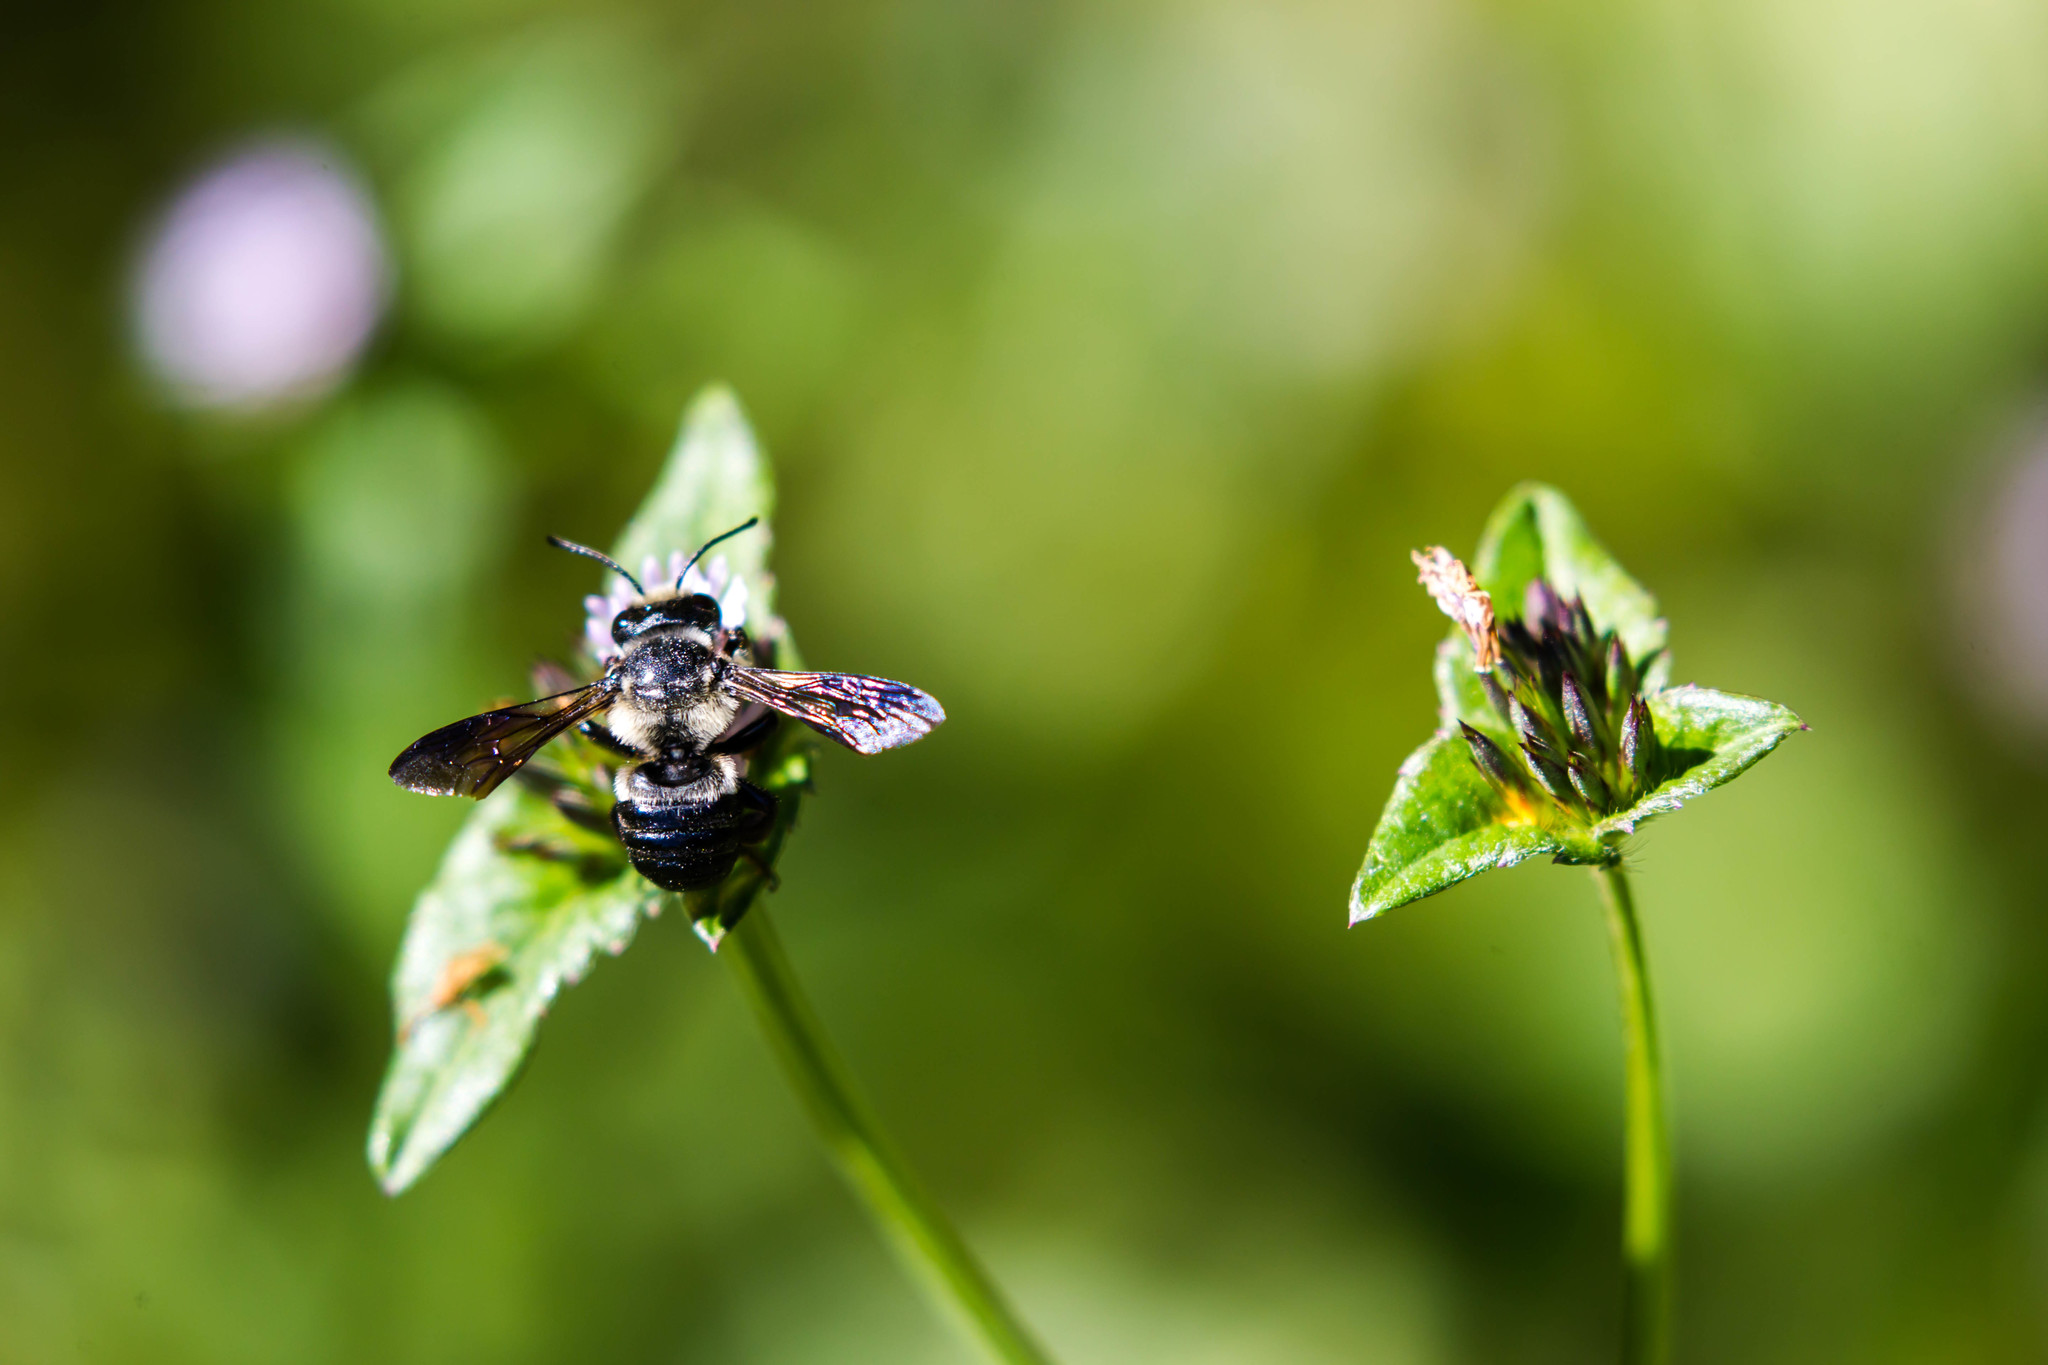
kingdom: Animalia
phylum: Arthropoda
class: Insecta
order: Hymenoptera
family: Megachilidae
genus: Megachile
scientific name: Megachile xylocopoides
